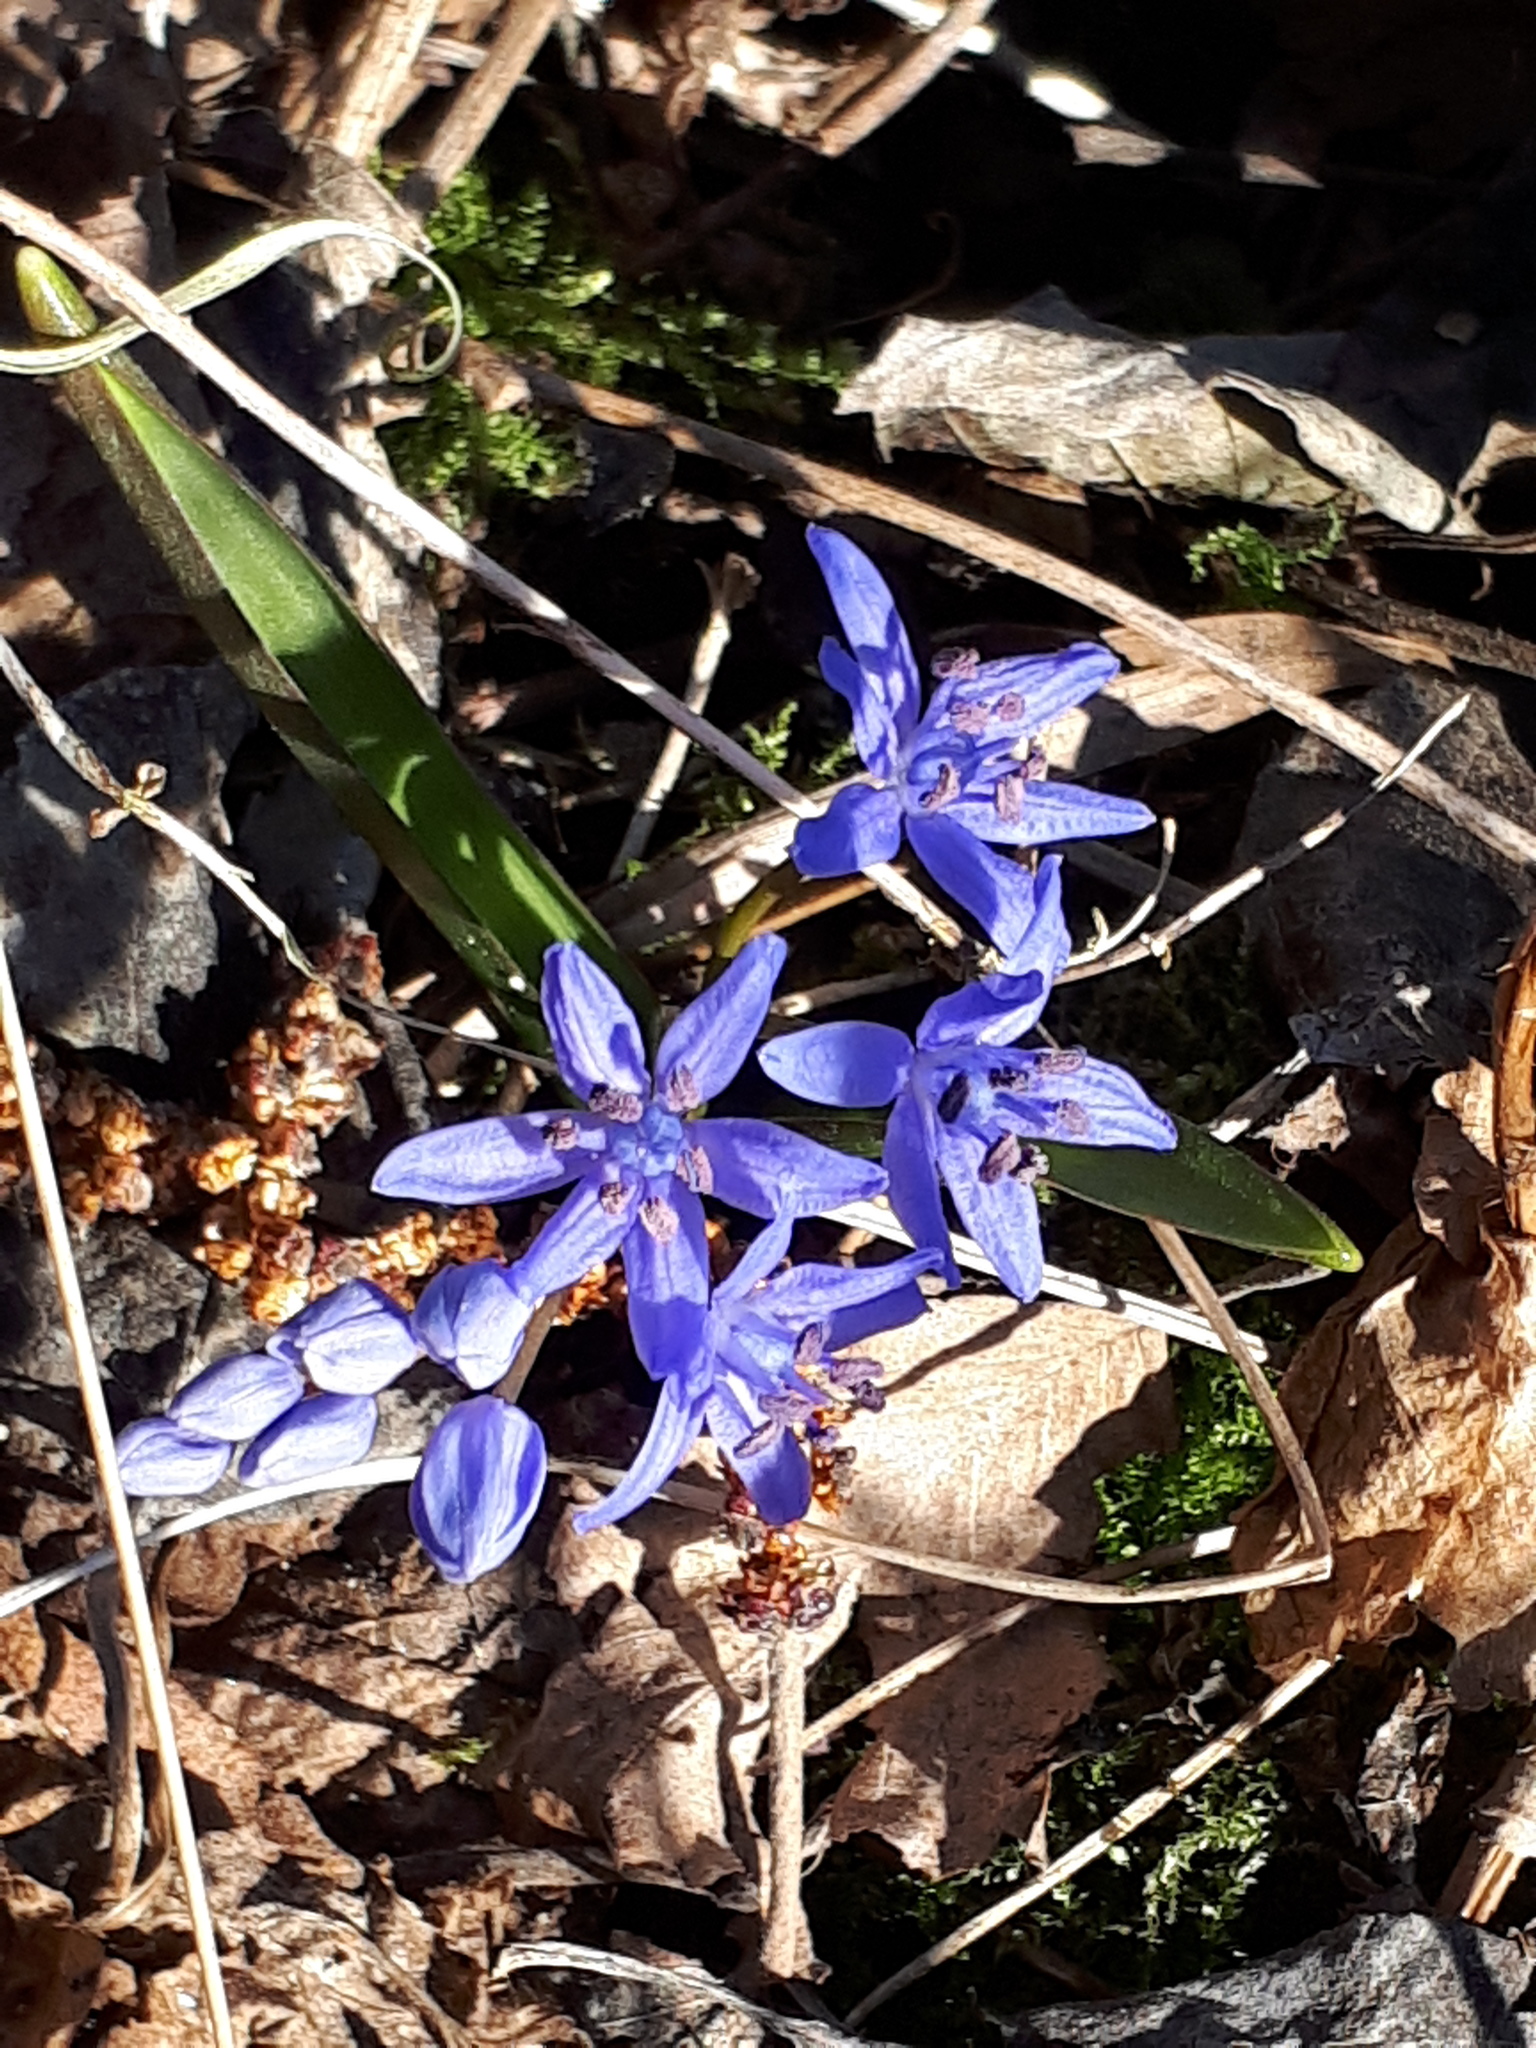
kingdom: Plantae
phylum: Tracheophyta
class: Liliopsida
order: Asparagales
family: Asparagaceae
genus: Scilla
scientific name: Scilla bifolia
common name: Alpine squill
